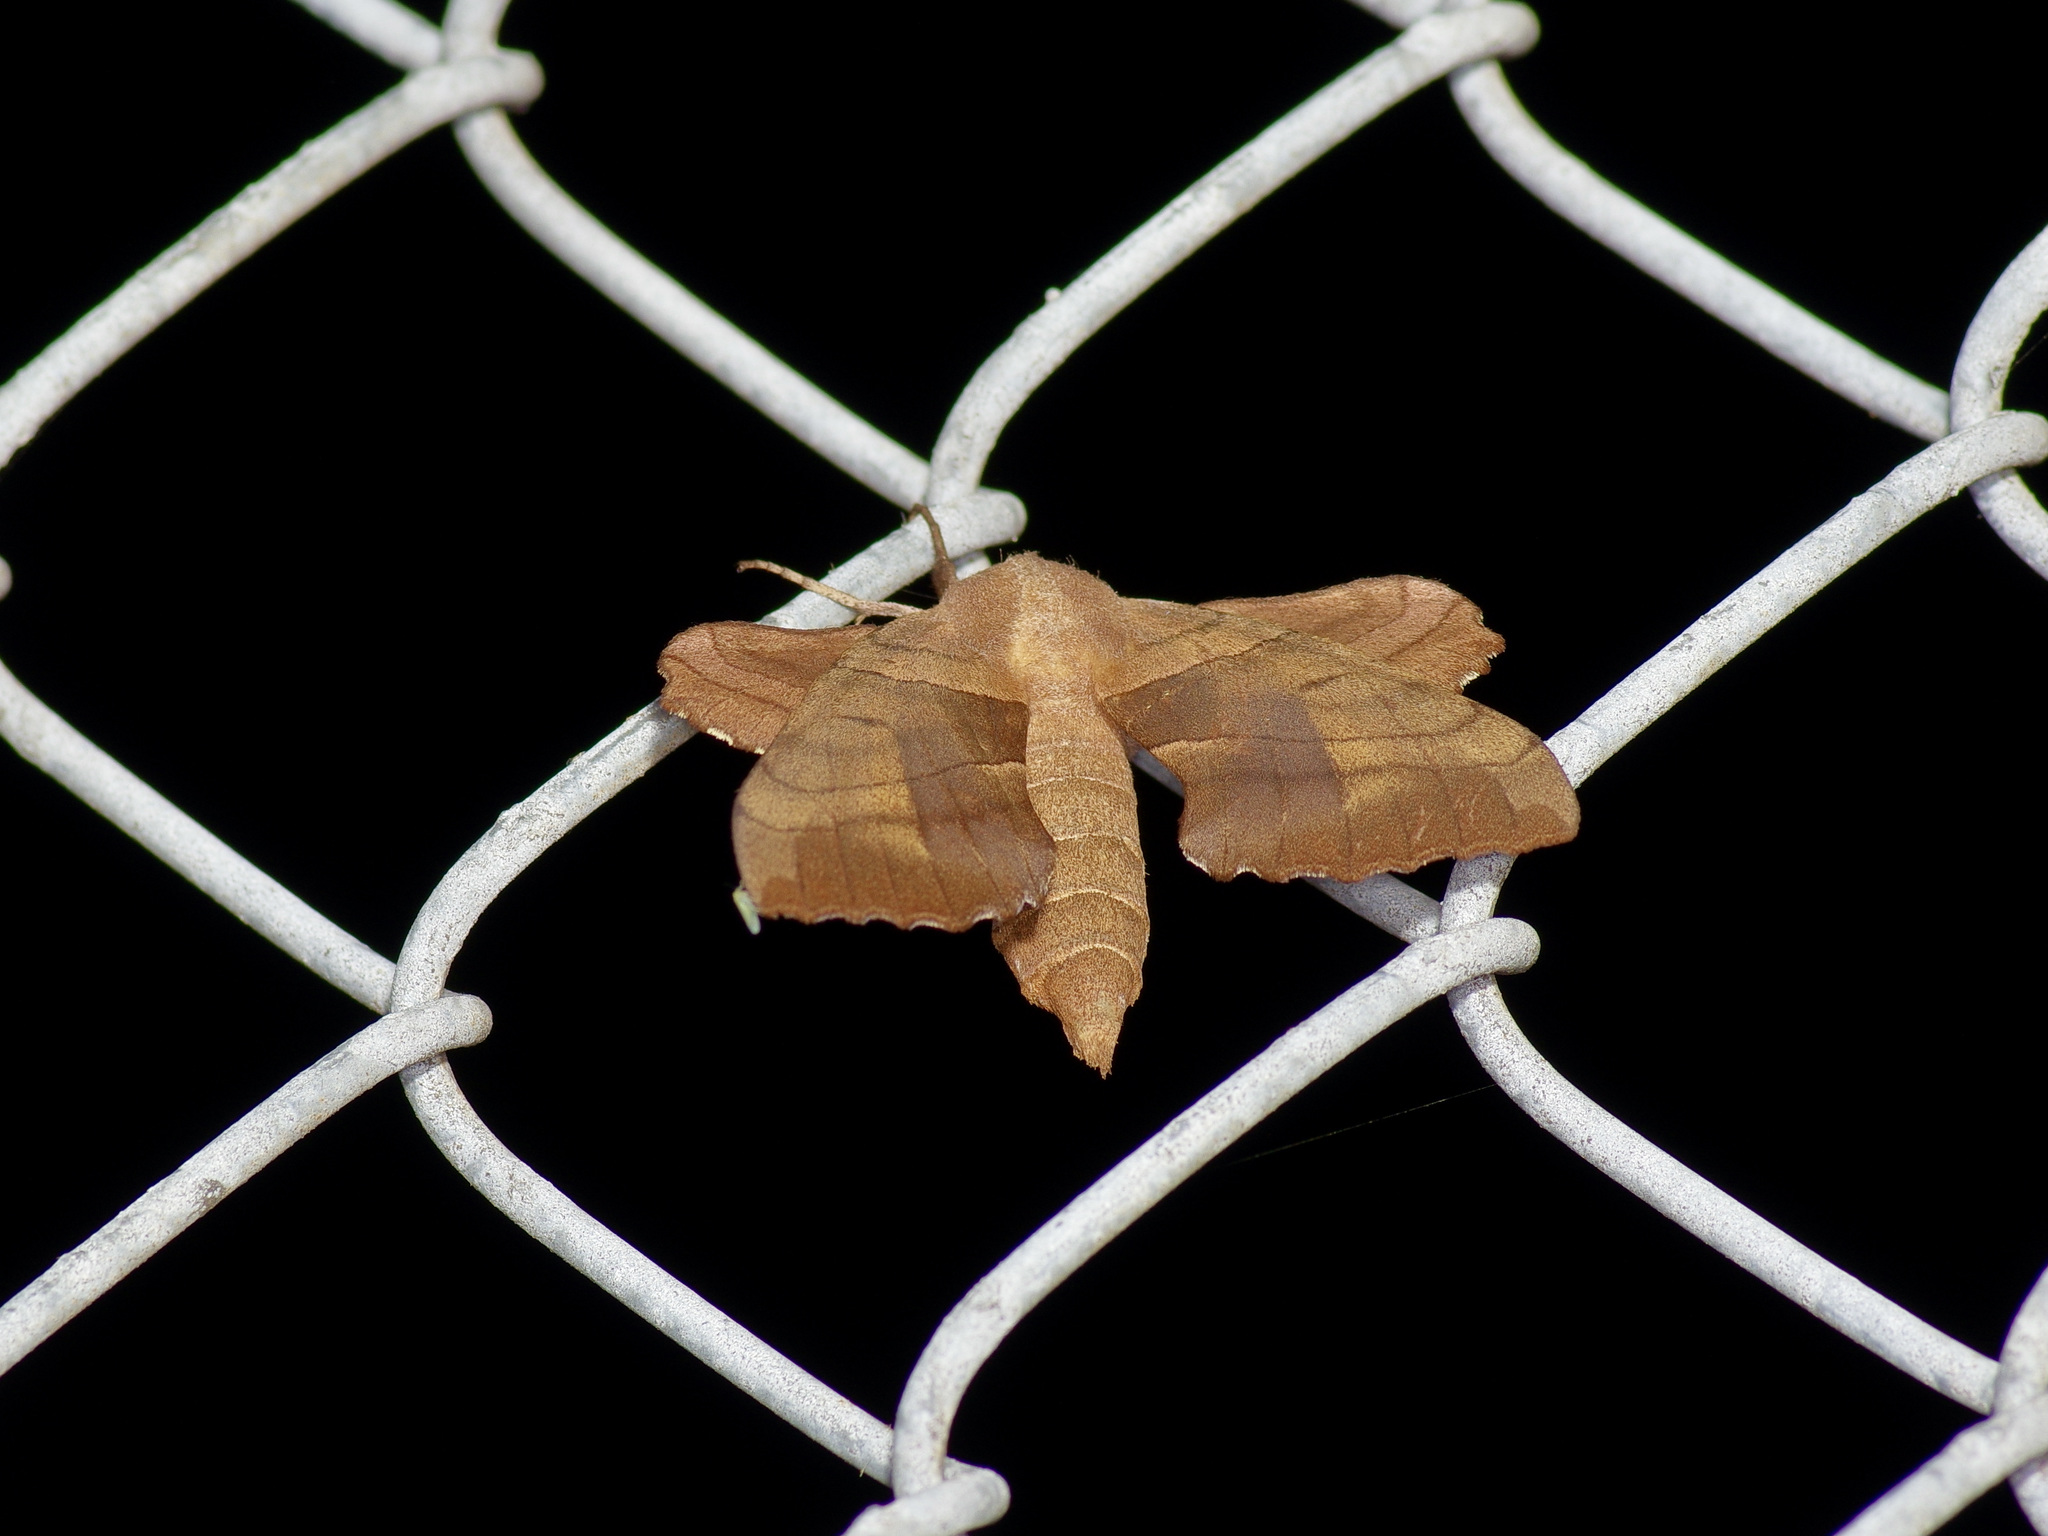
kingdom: Animalia
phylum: Arthropoda
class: Insecta
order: Lepidoptera
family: Sphingidae
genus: Amorpha
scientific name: Amorpha juglandis
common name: Walnut sphinx
